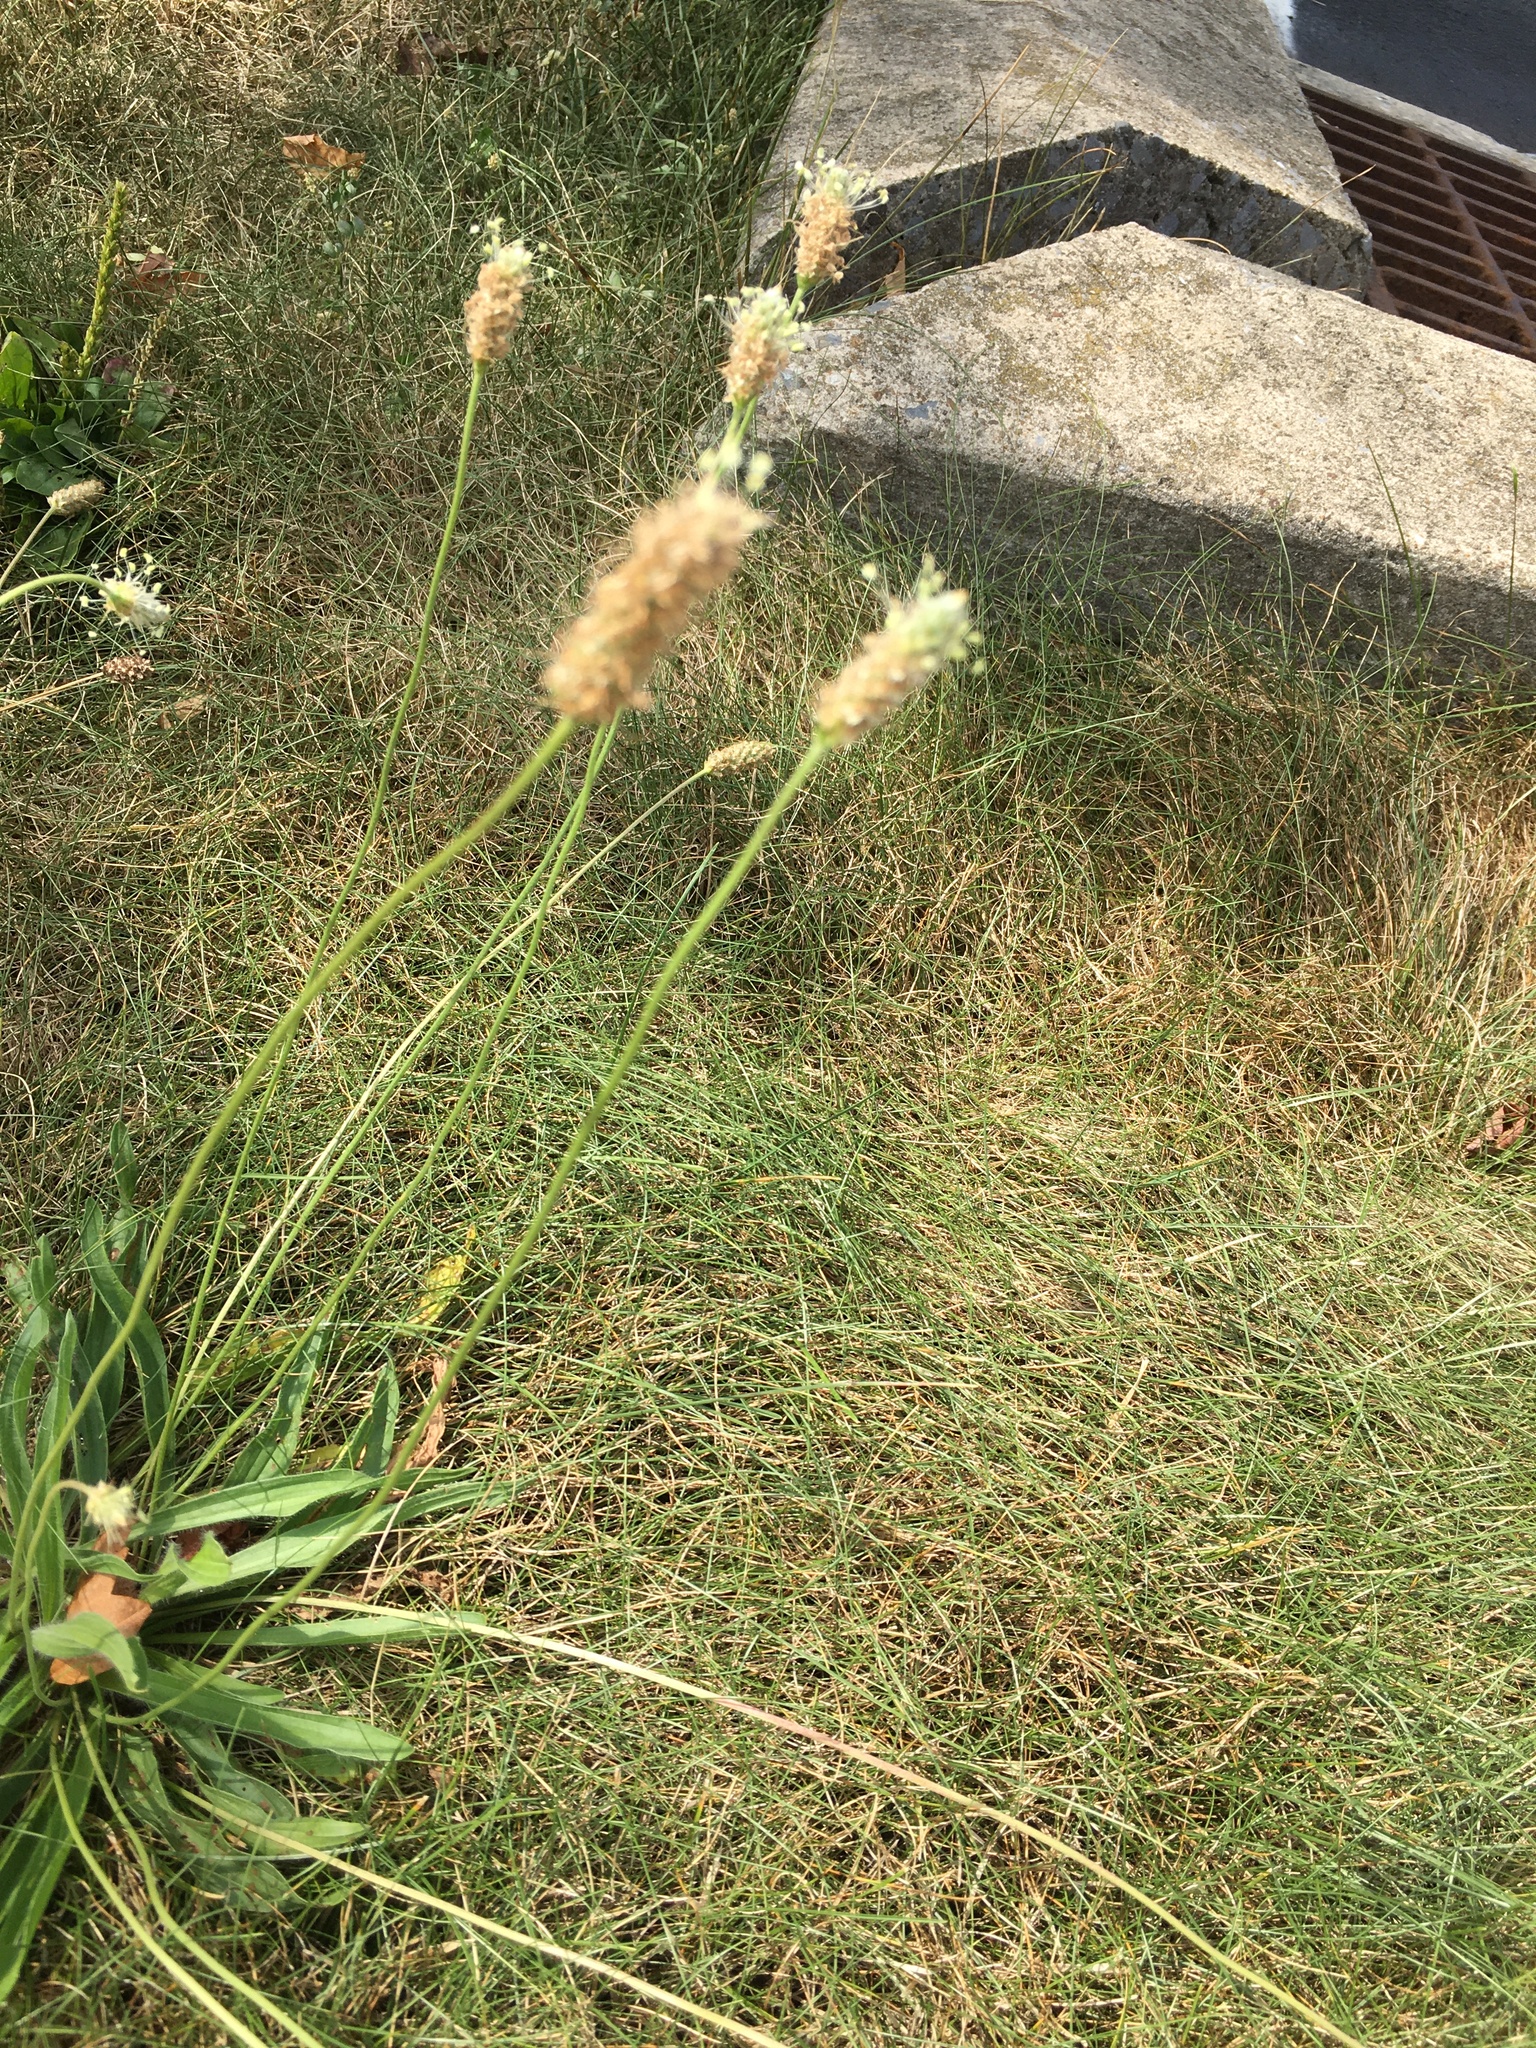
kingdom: Plantae
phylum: Tracheophyta
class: Magnoliopsida
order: Lamiales
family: Plantaginaceae
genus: Plantago
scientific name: Plantago lanceolata
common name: Ribwort plantain
